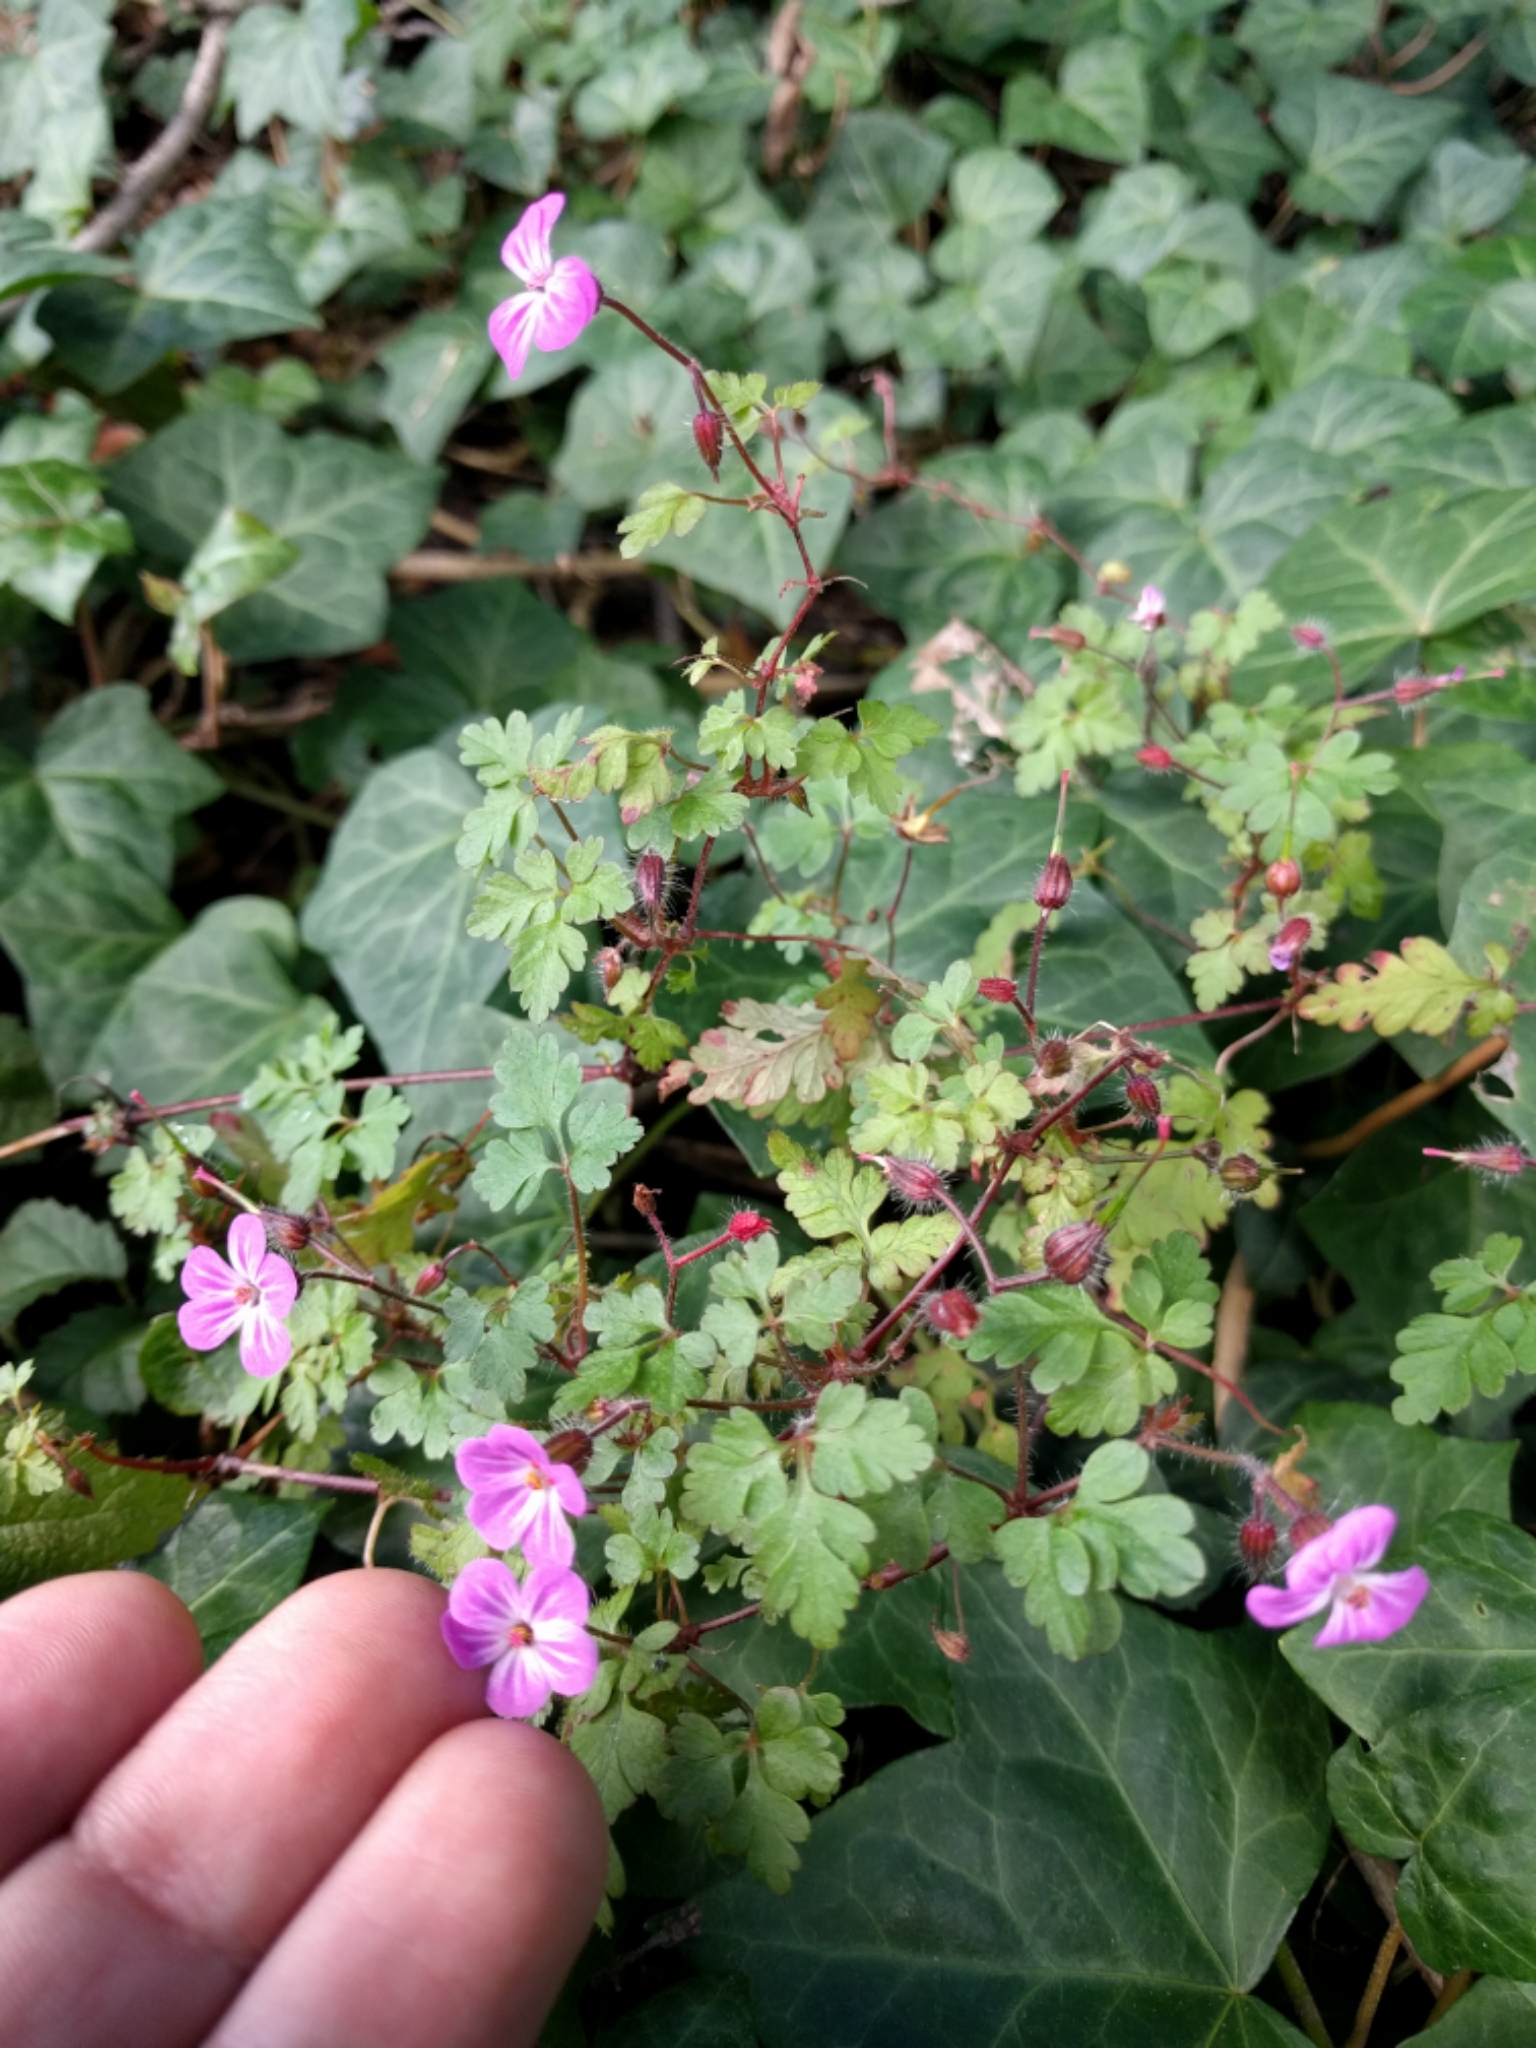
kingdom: Plantae
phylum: Tracheophyta
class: Magnoliopsida
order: Geraniales
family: Geraniaceae
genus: Geranium
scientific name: Geranium purpureum
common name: Little-robin
